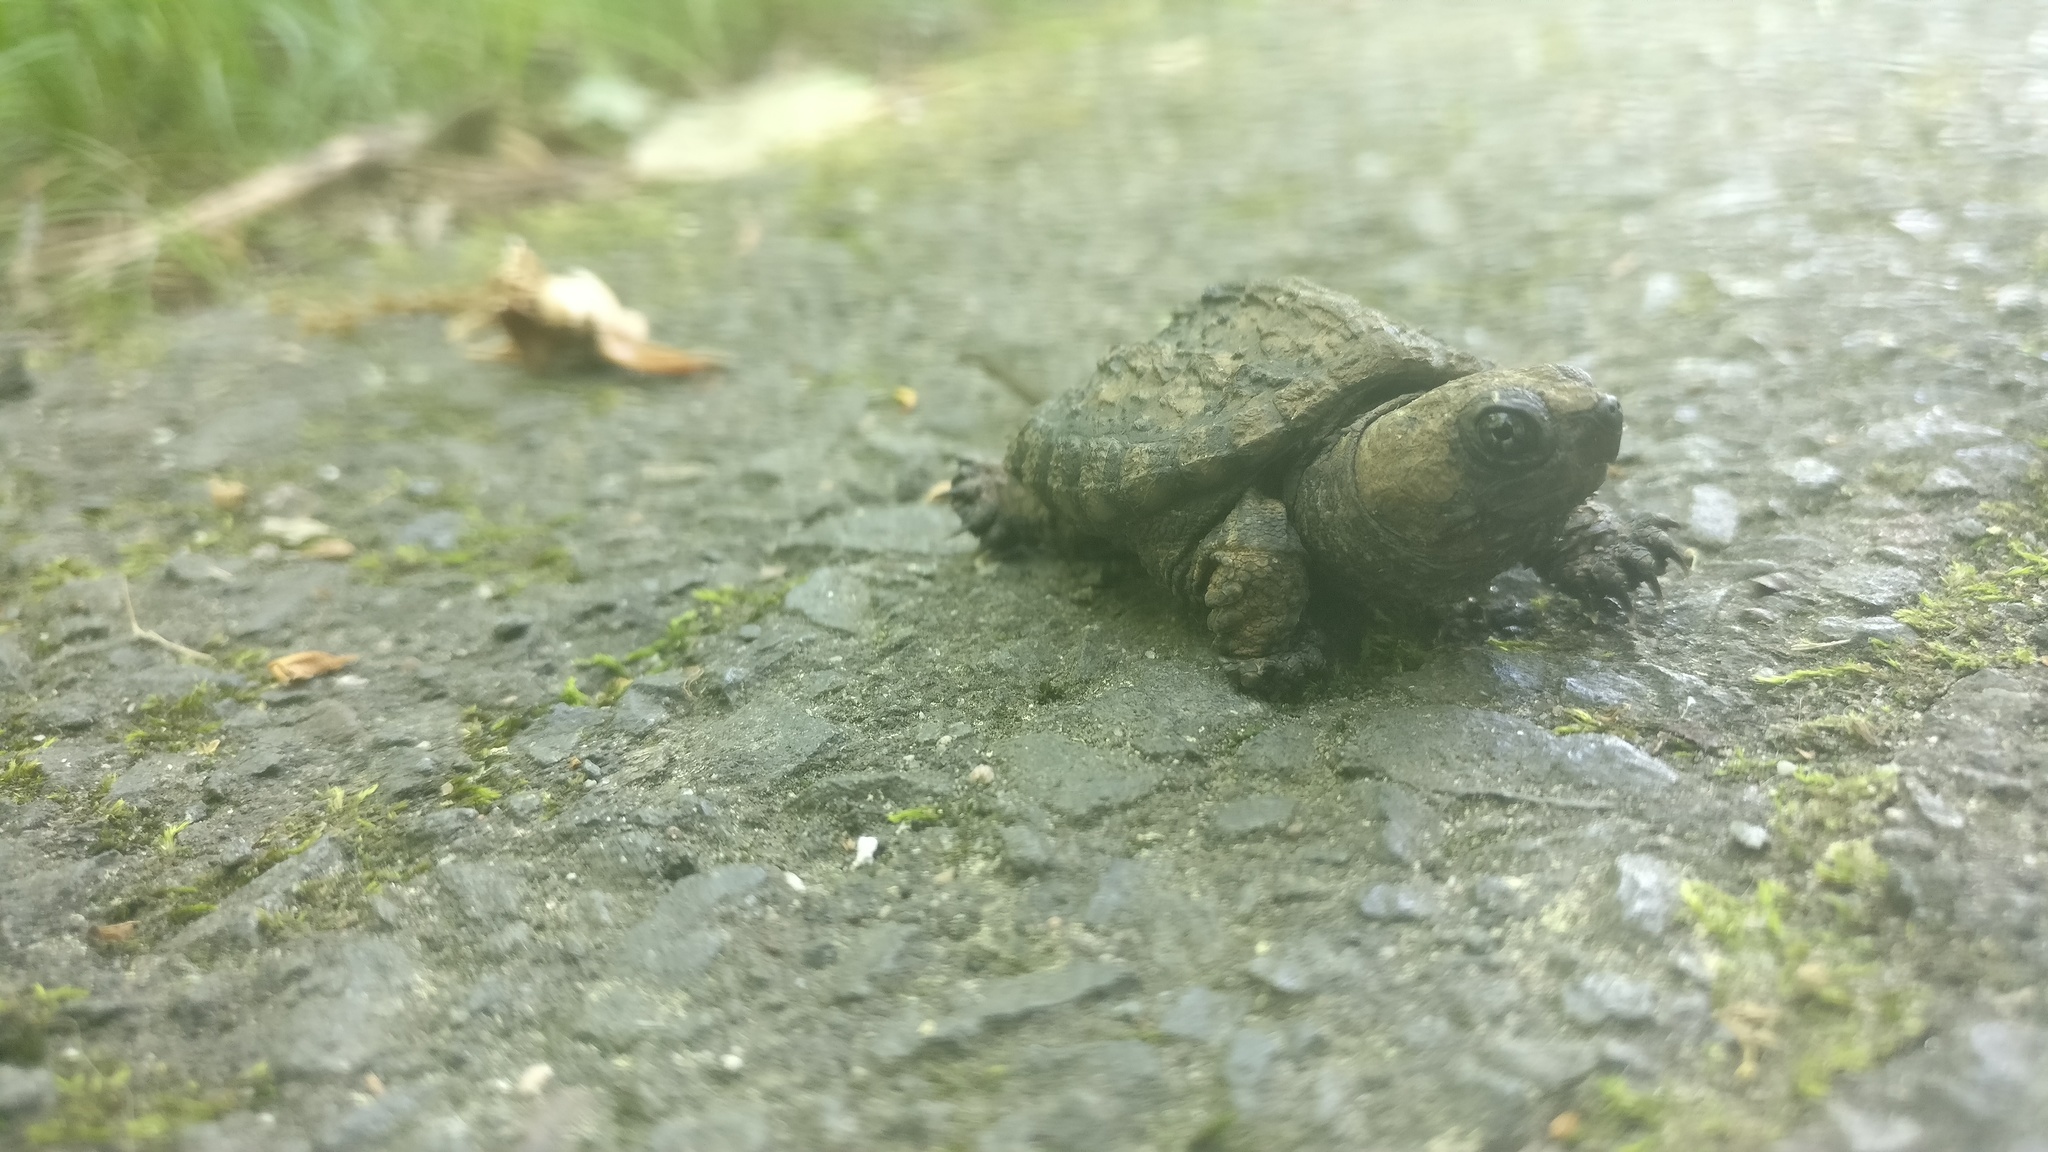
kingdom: Animalia
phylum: Chordata
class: Testudines
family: Chelydridae
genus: Chelydra
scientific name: Chelydra serpentina
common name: Common snapping turtle
